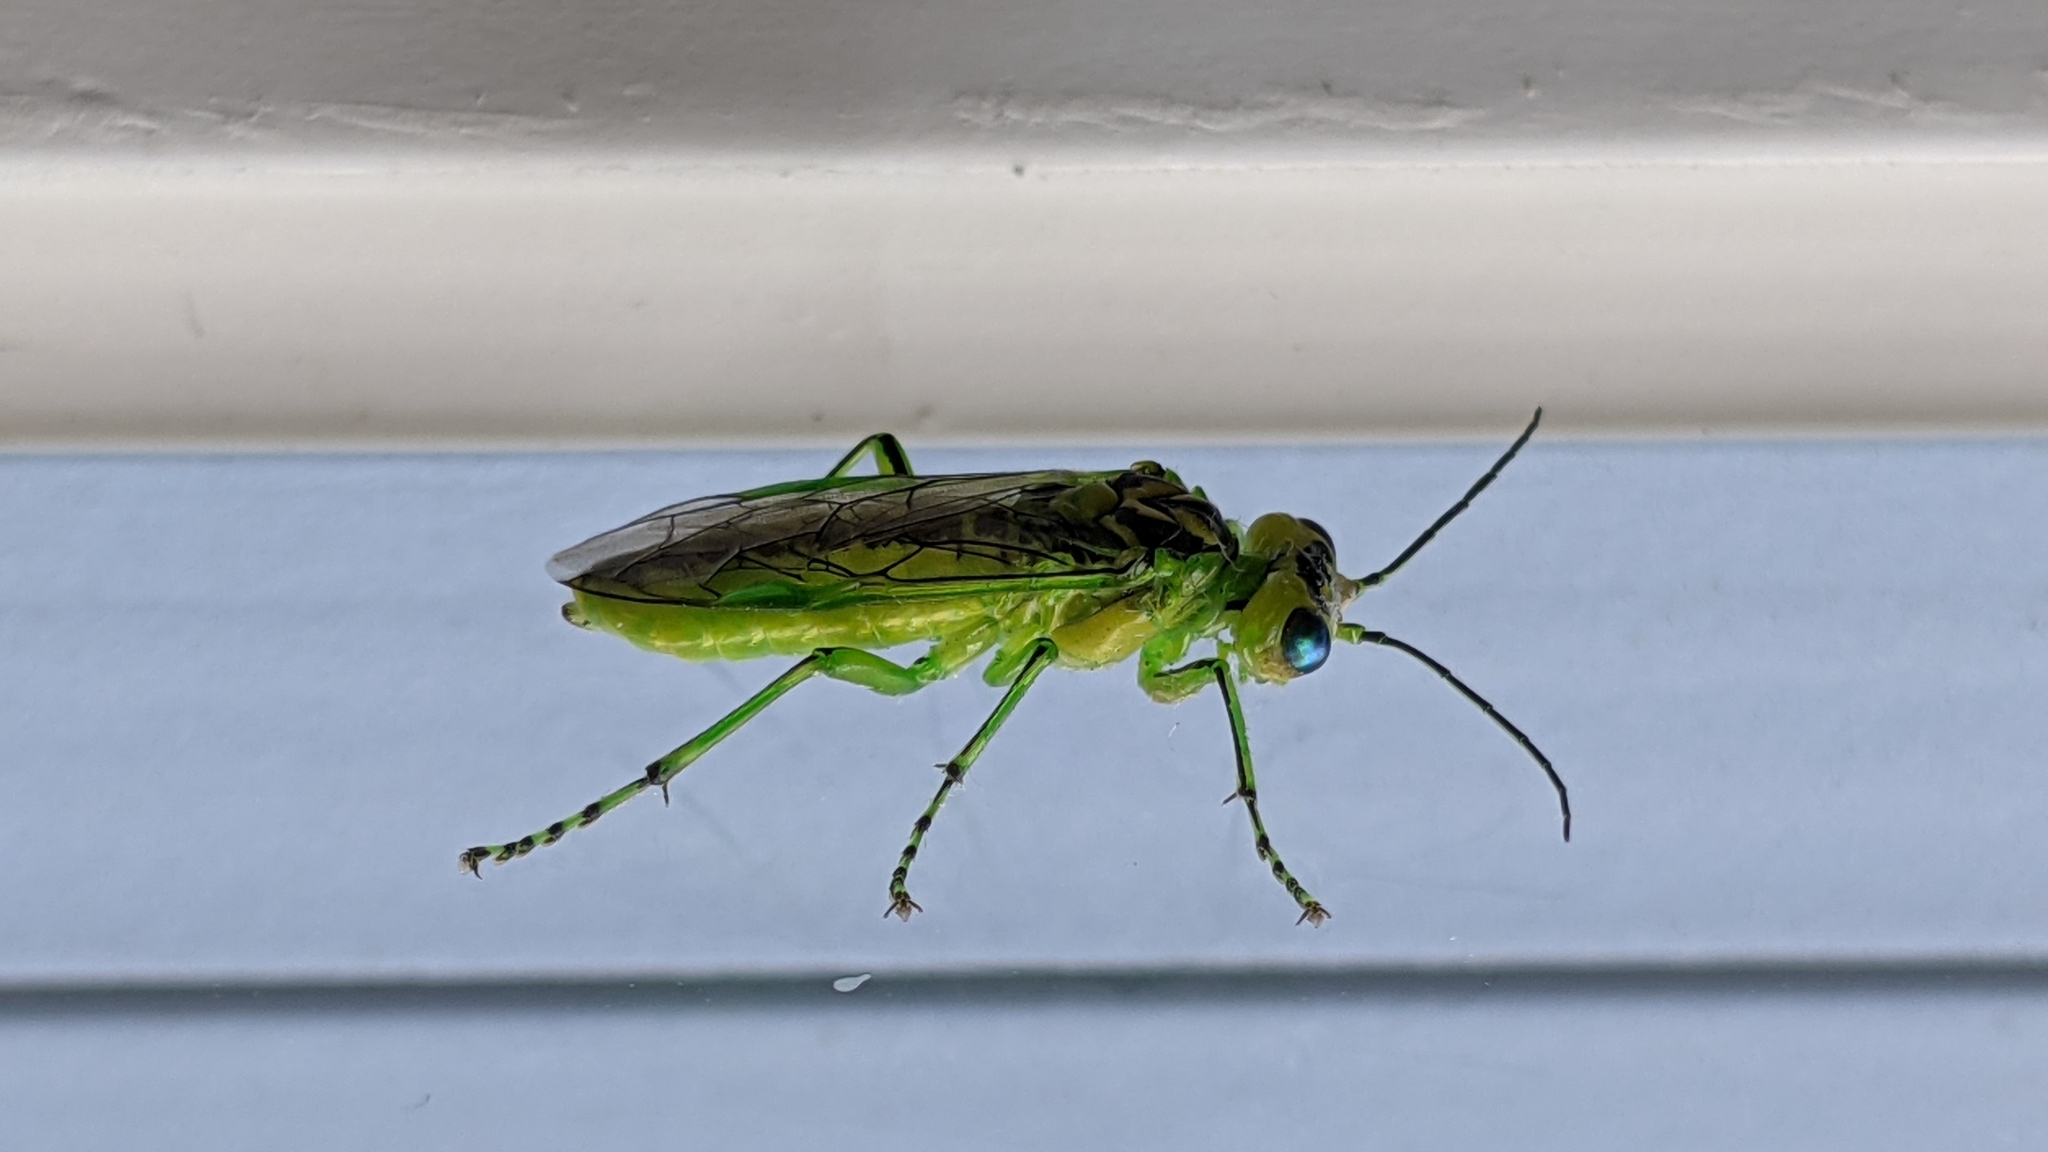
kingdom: Animalia
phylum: Arthropoda
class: Insecta
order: Hymenoptera
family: Tenthredinidae
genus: Rhogogaster
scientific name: Rhogogaster chlorosoma
